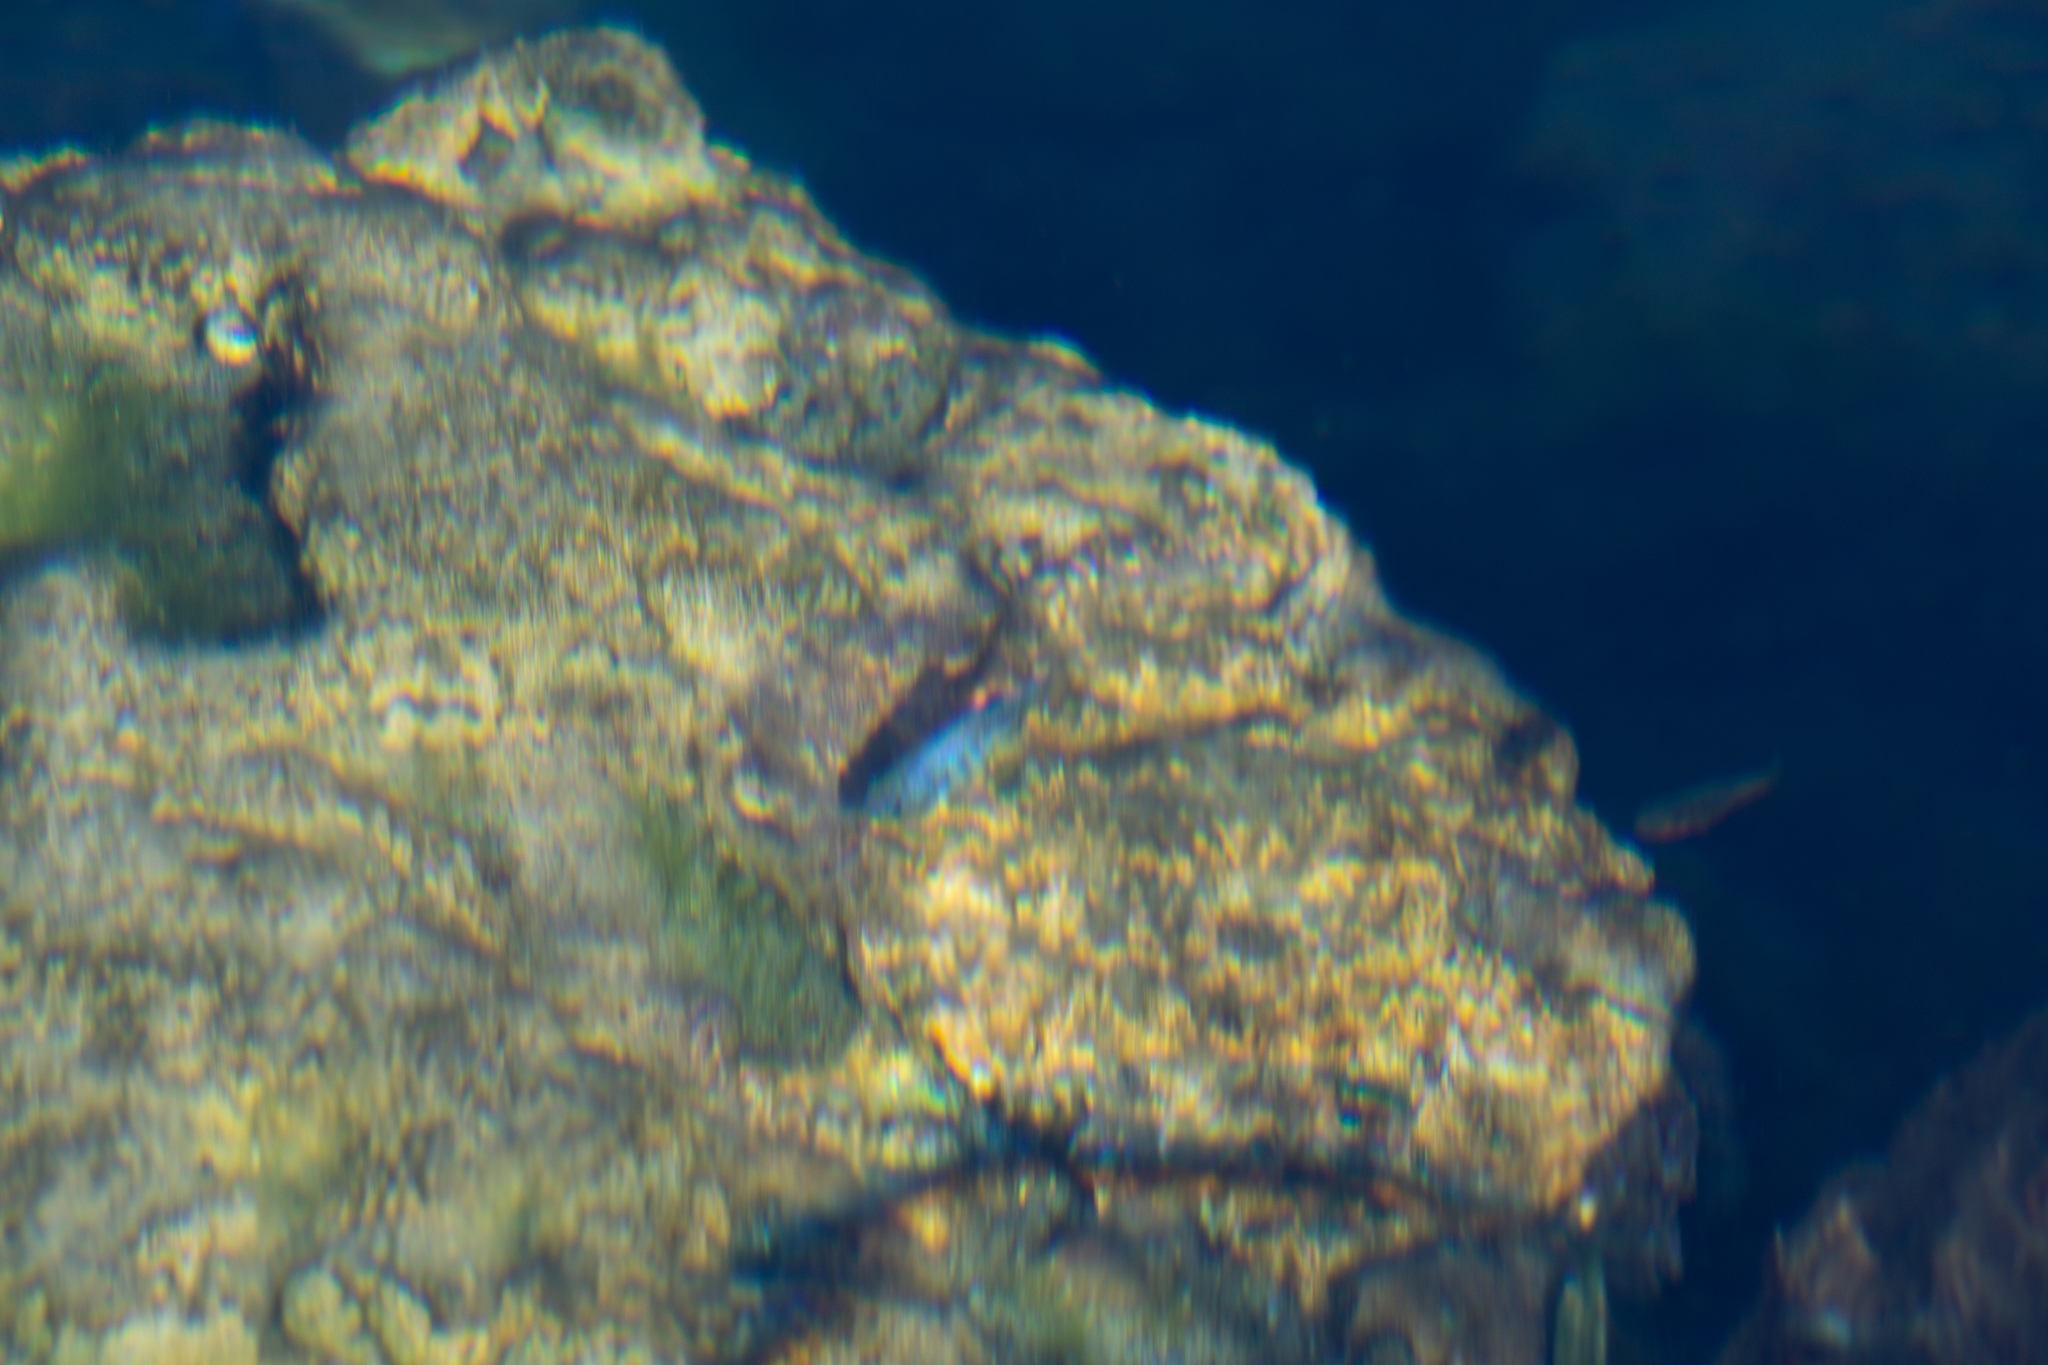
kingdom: Animalia
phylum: Chordata
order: Cyprinodontiformes
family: Cyprinodontidae
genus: Cyprinodon
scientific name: Cyprinodon nevadensis
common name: Amargosa pupfish
